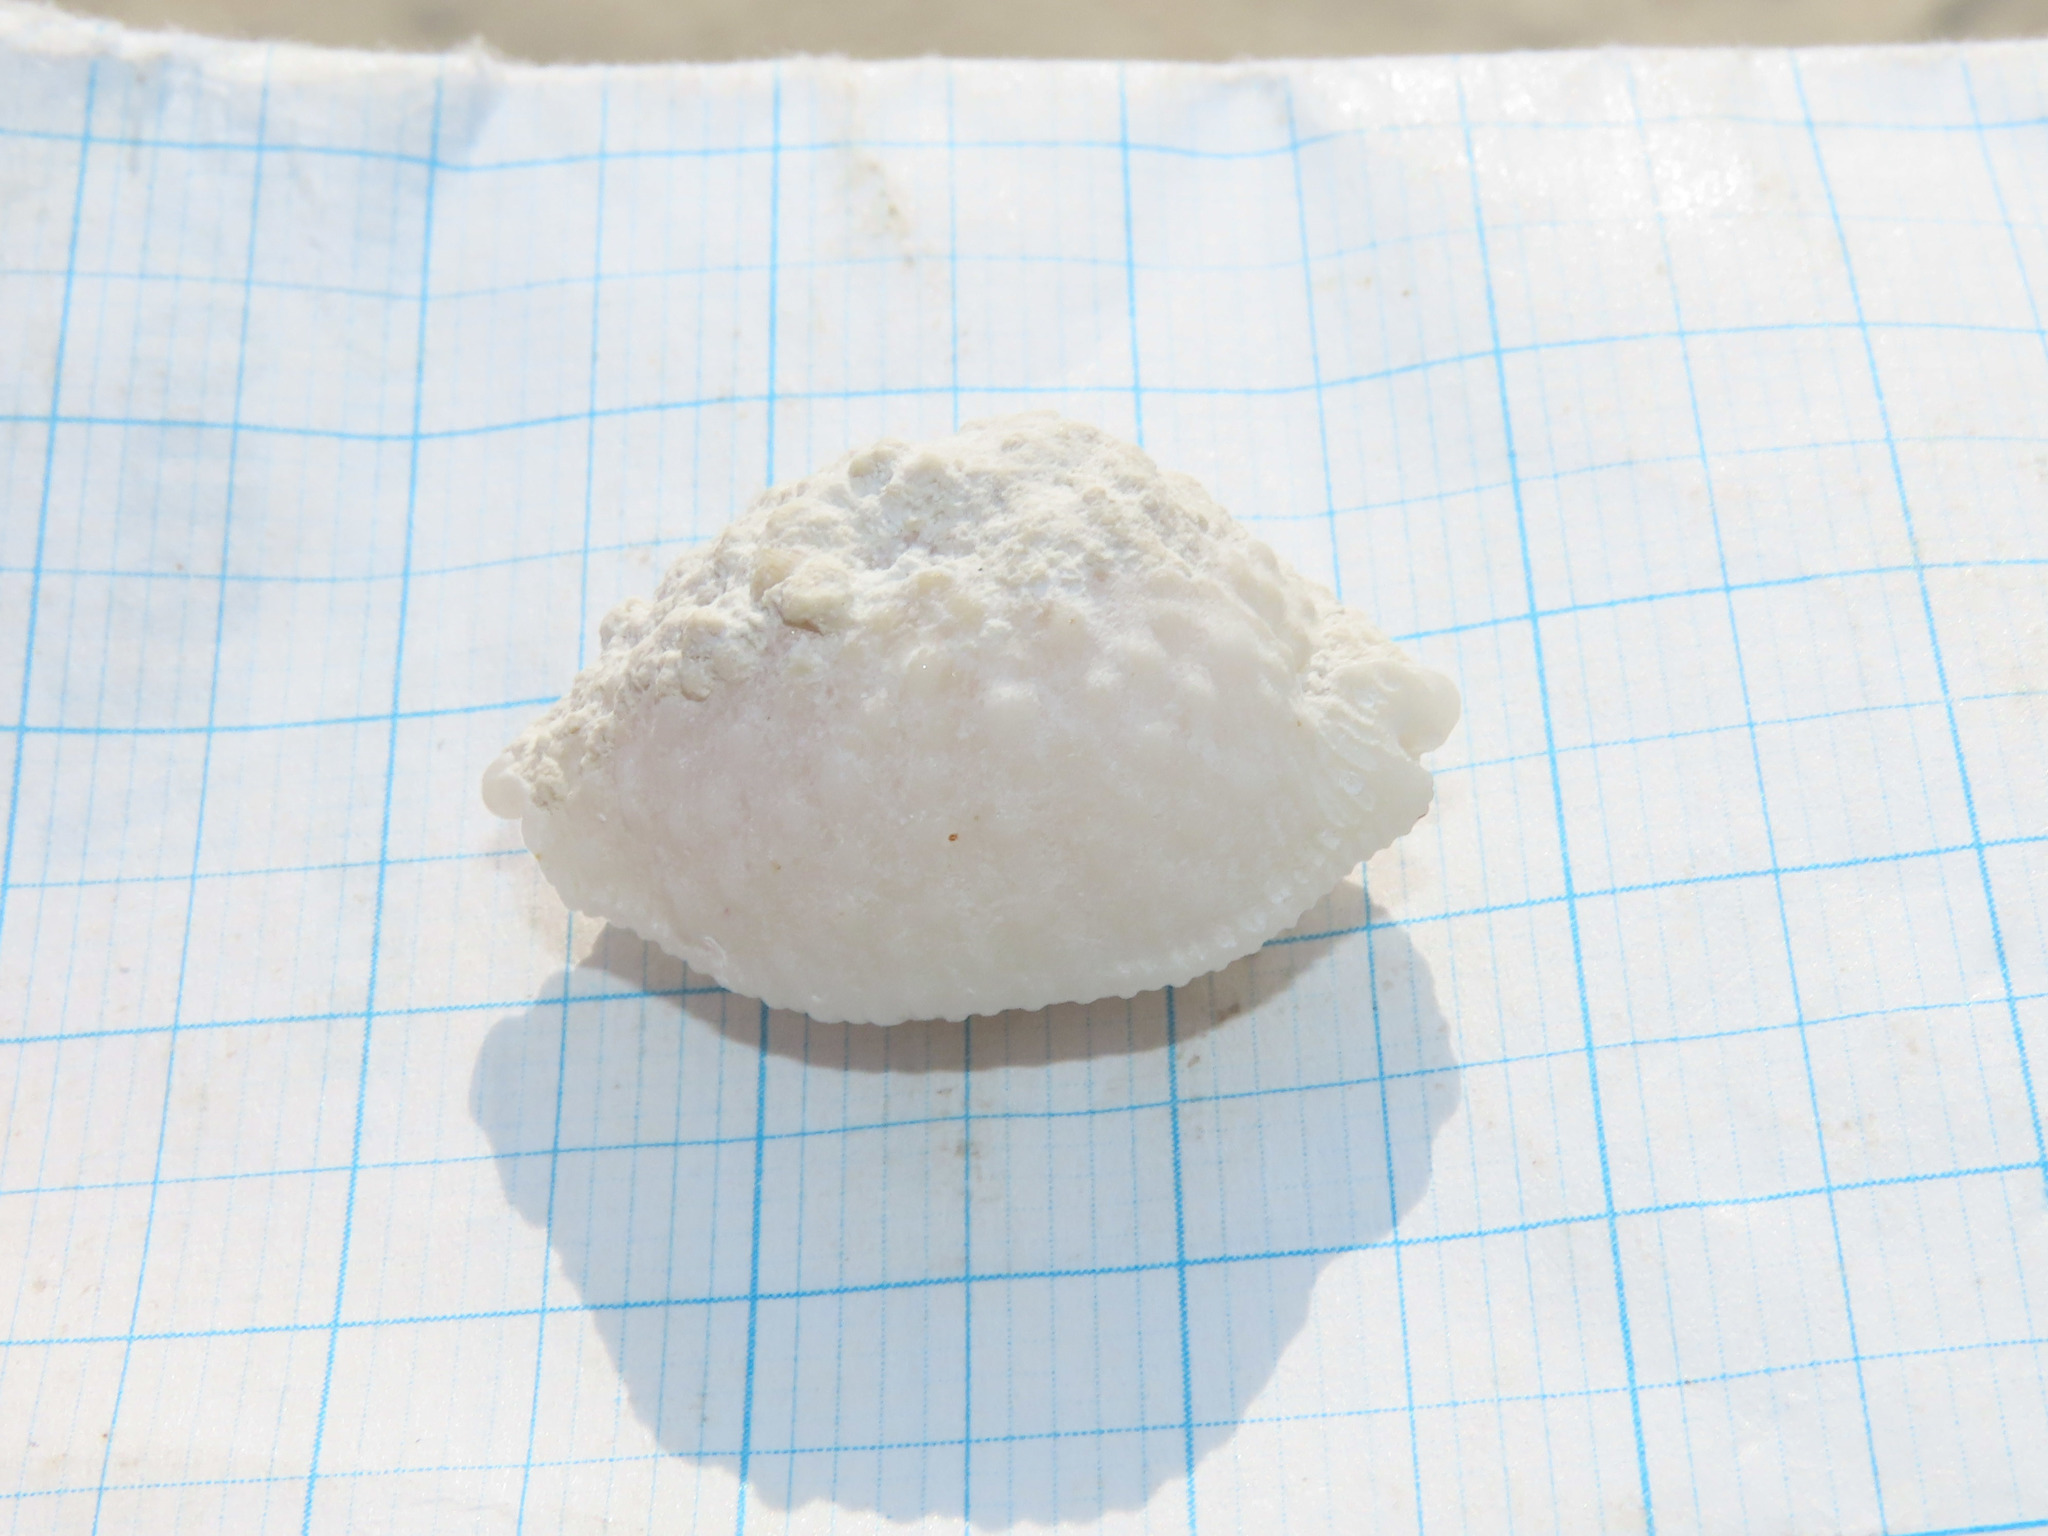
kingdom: Animalia
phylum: Mollusca
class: Gastropoda
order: Littorinimorpha
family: Cypraeidae
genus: Nucleolaria
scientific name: Nucleolaria nucleus
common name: Kernel cowry
